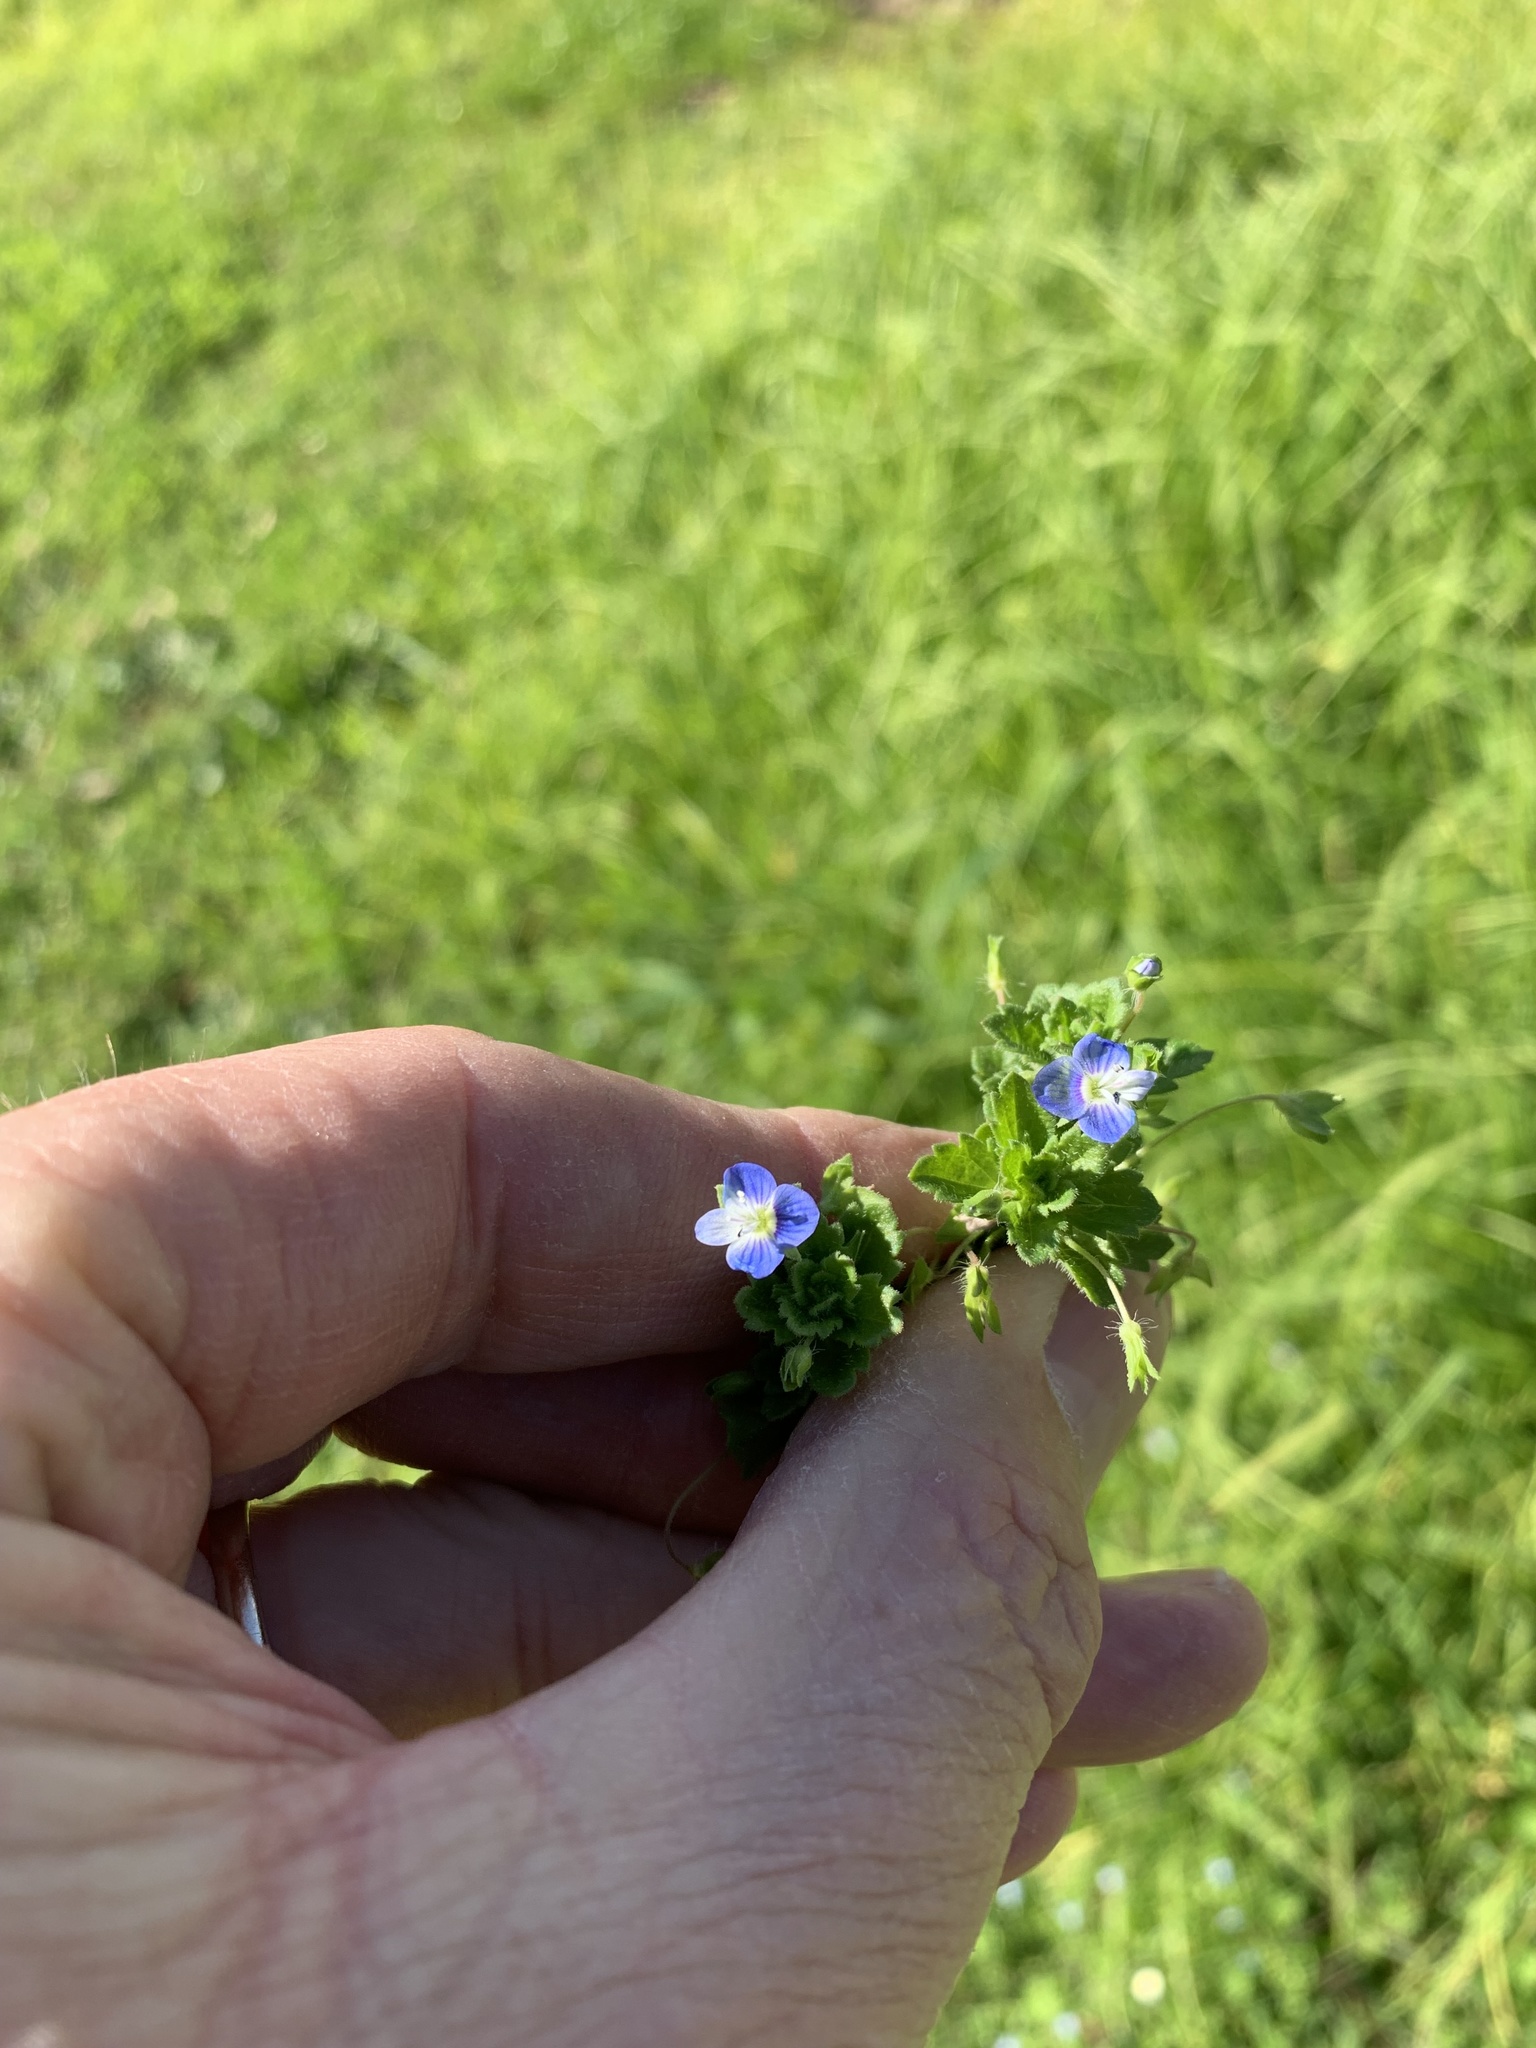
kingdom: Plantae
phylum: Tracheophyta
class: Magnoliopsida
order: Lamiales
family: Plantaginaceae
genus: Veronica
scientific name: Veronica persica
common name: Common field-speedwell
